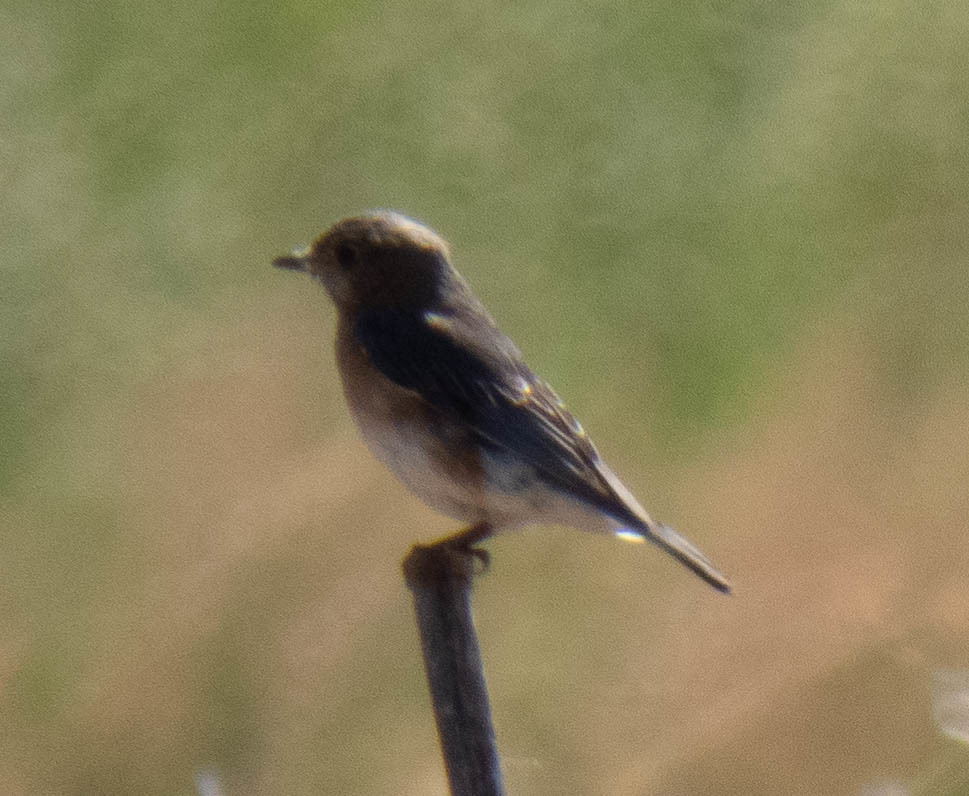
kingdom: Animalia
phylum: Chordata
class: Aves
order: Passeriformes
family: Turdidae
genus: Sialia
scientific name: Sialia sialis
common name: Eastern bluebird
